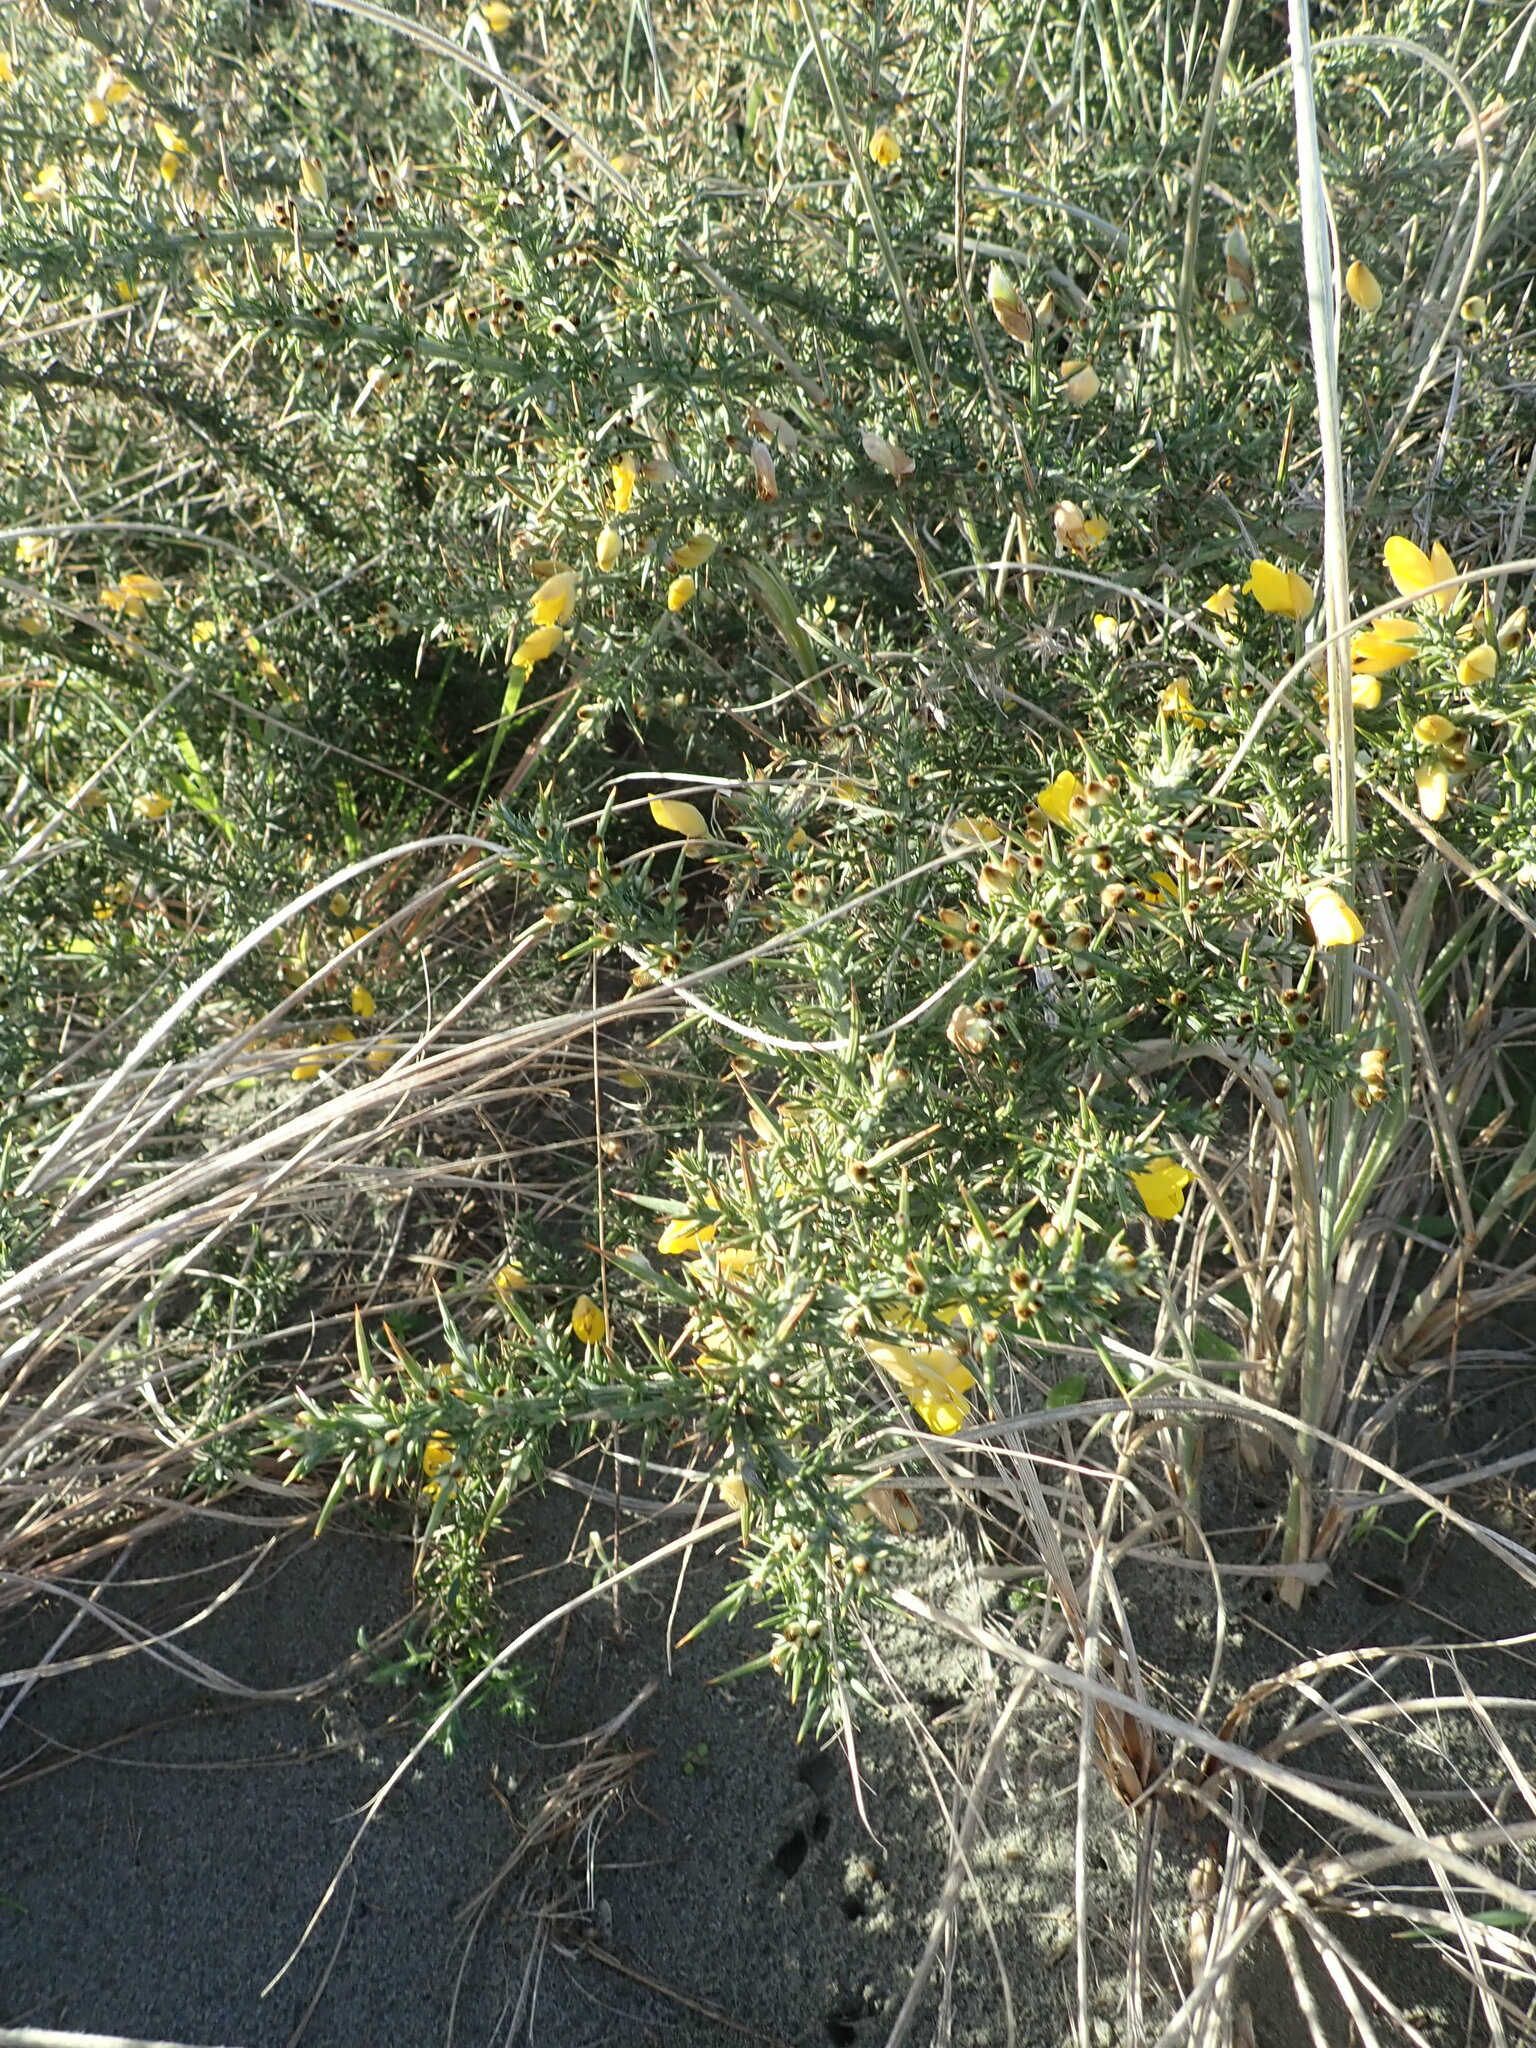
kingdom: Plantae
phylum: Tracheophyta
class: Magnoliopsida
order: Fabales
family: Fabaceae
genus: Ulex
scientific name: Ulex europaeus
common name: Common gorse
